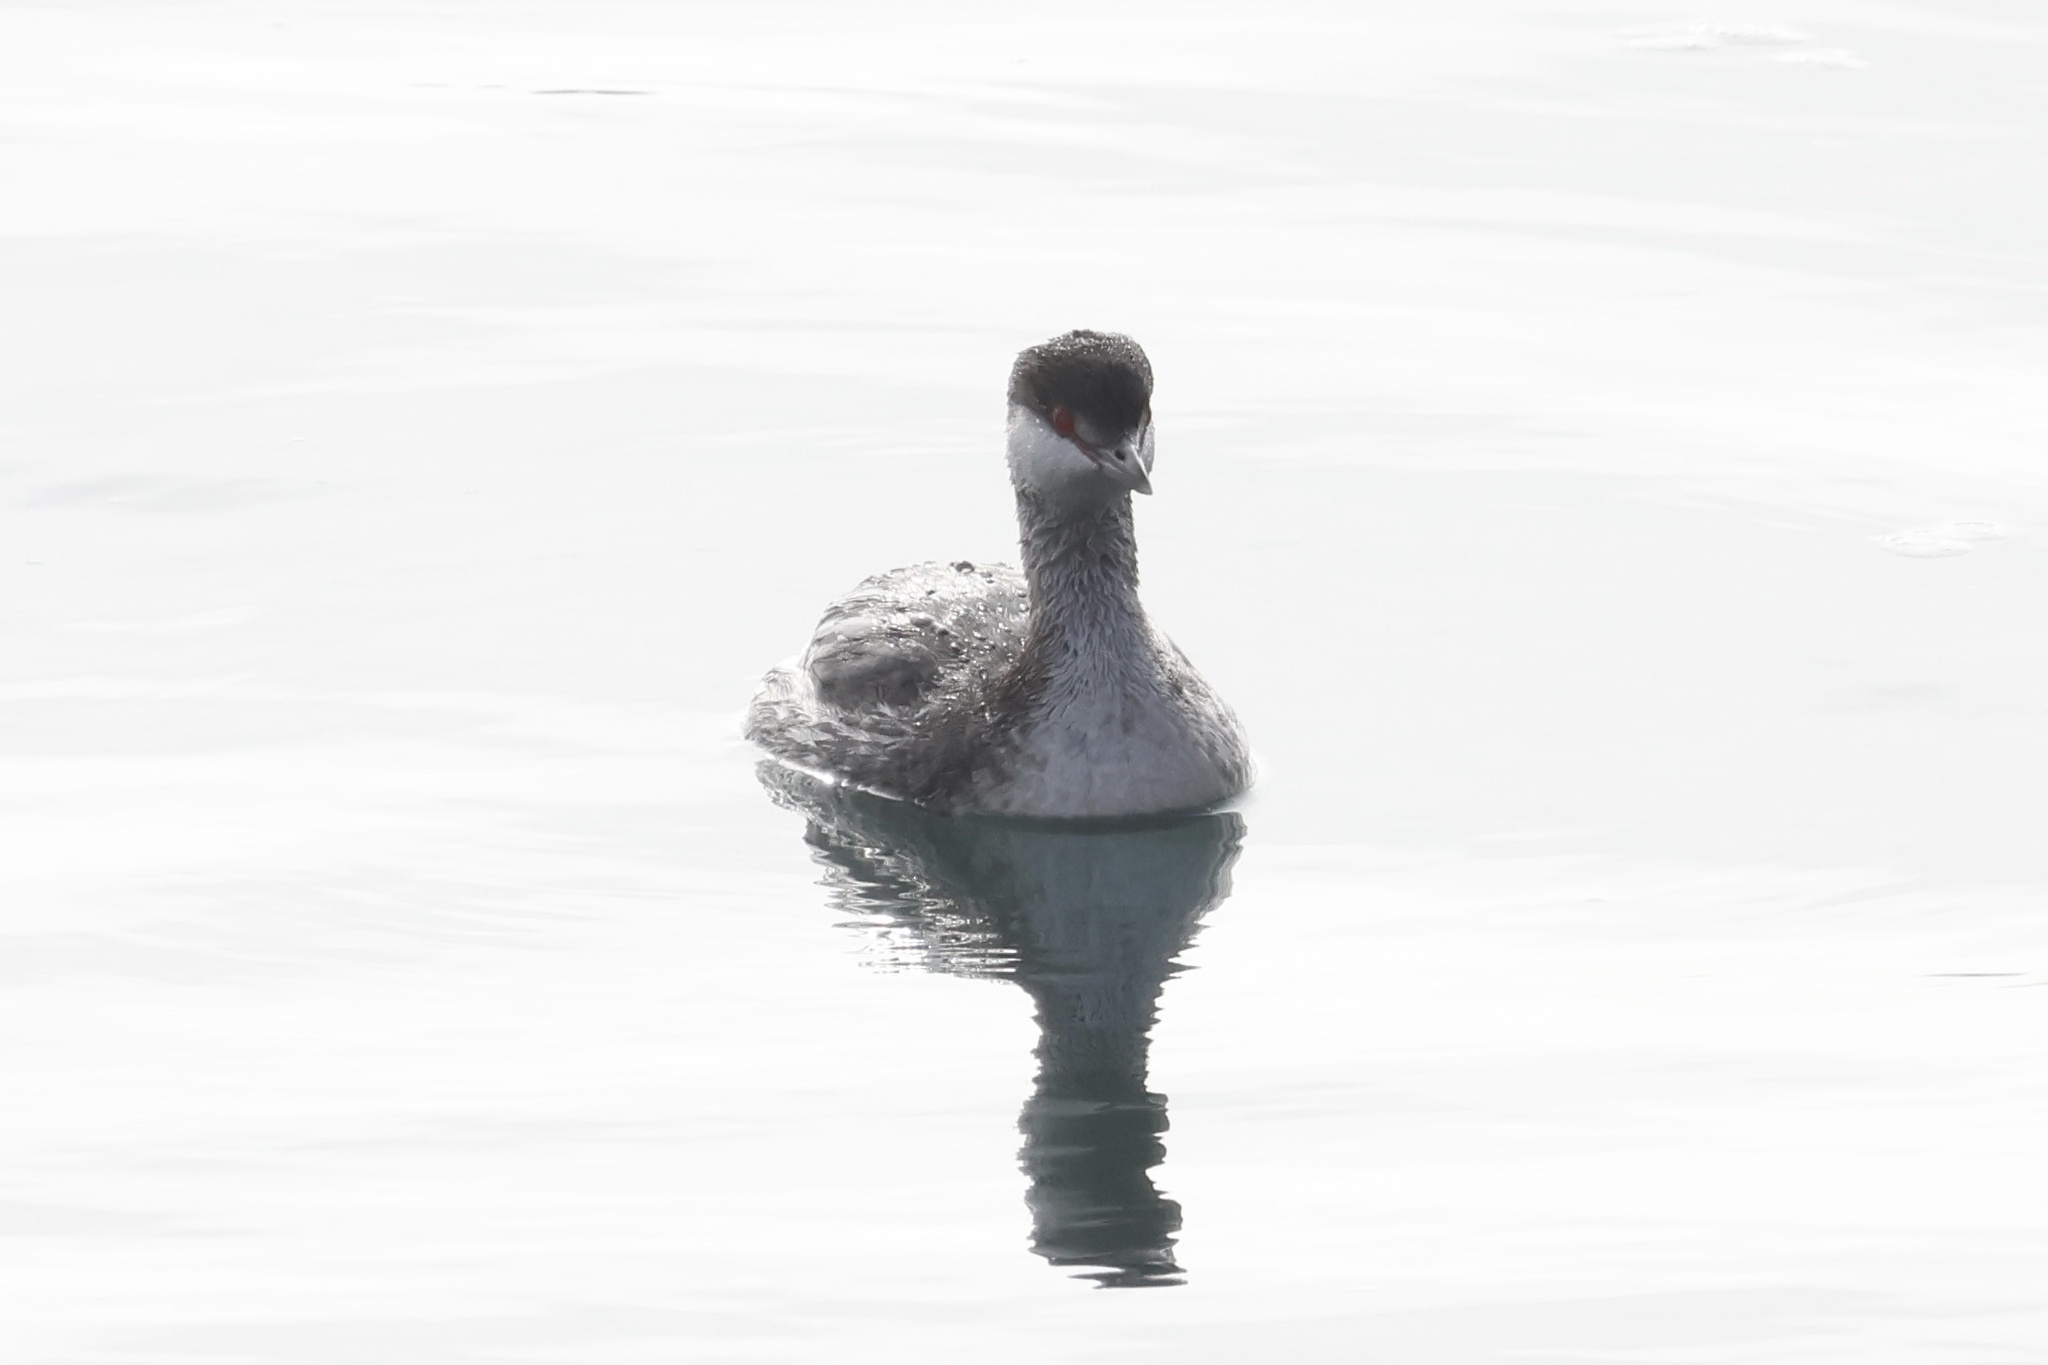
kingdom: Animalia
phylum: Chordata
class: Aves
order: Podicipediformes
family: Podicipedidae
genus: Podiceps
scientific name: Podiceps auritus
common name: Horned grebe
